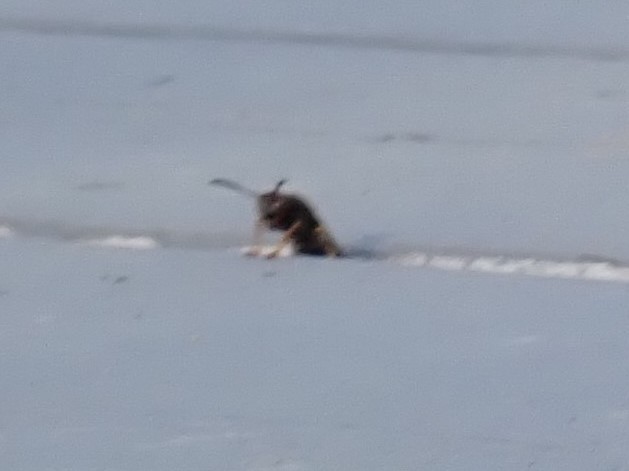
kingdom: Animalia
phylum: Arthropoda
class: Insecta
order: Hymenoptera
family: Vespidae
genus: Fuscopolistes
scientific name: Fuscopolistes
